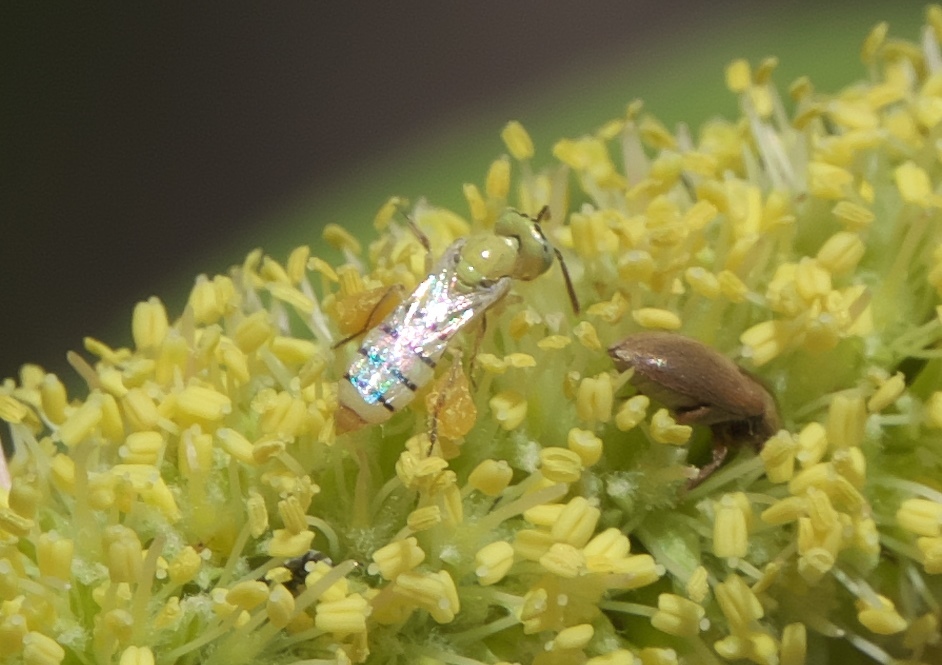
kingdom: Animalia
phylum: Arthropoda
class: Insecta
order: Hymenoptera
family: Andrenidae
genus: Perdita
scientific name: Perdita
